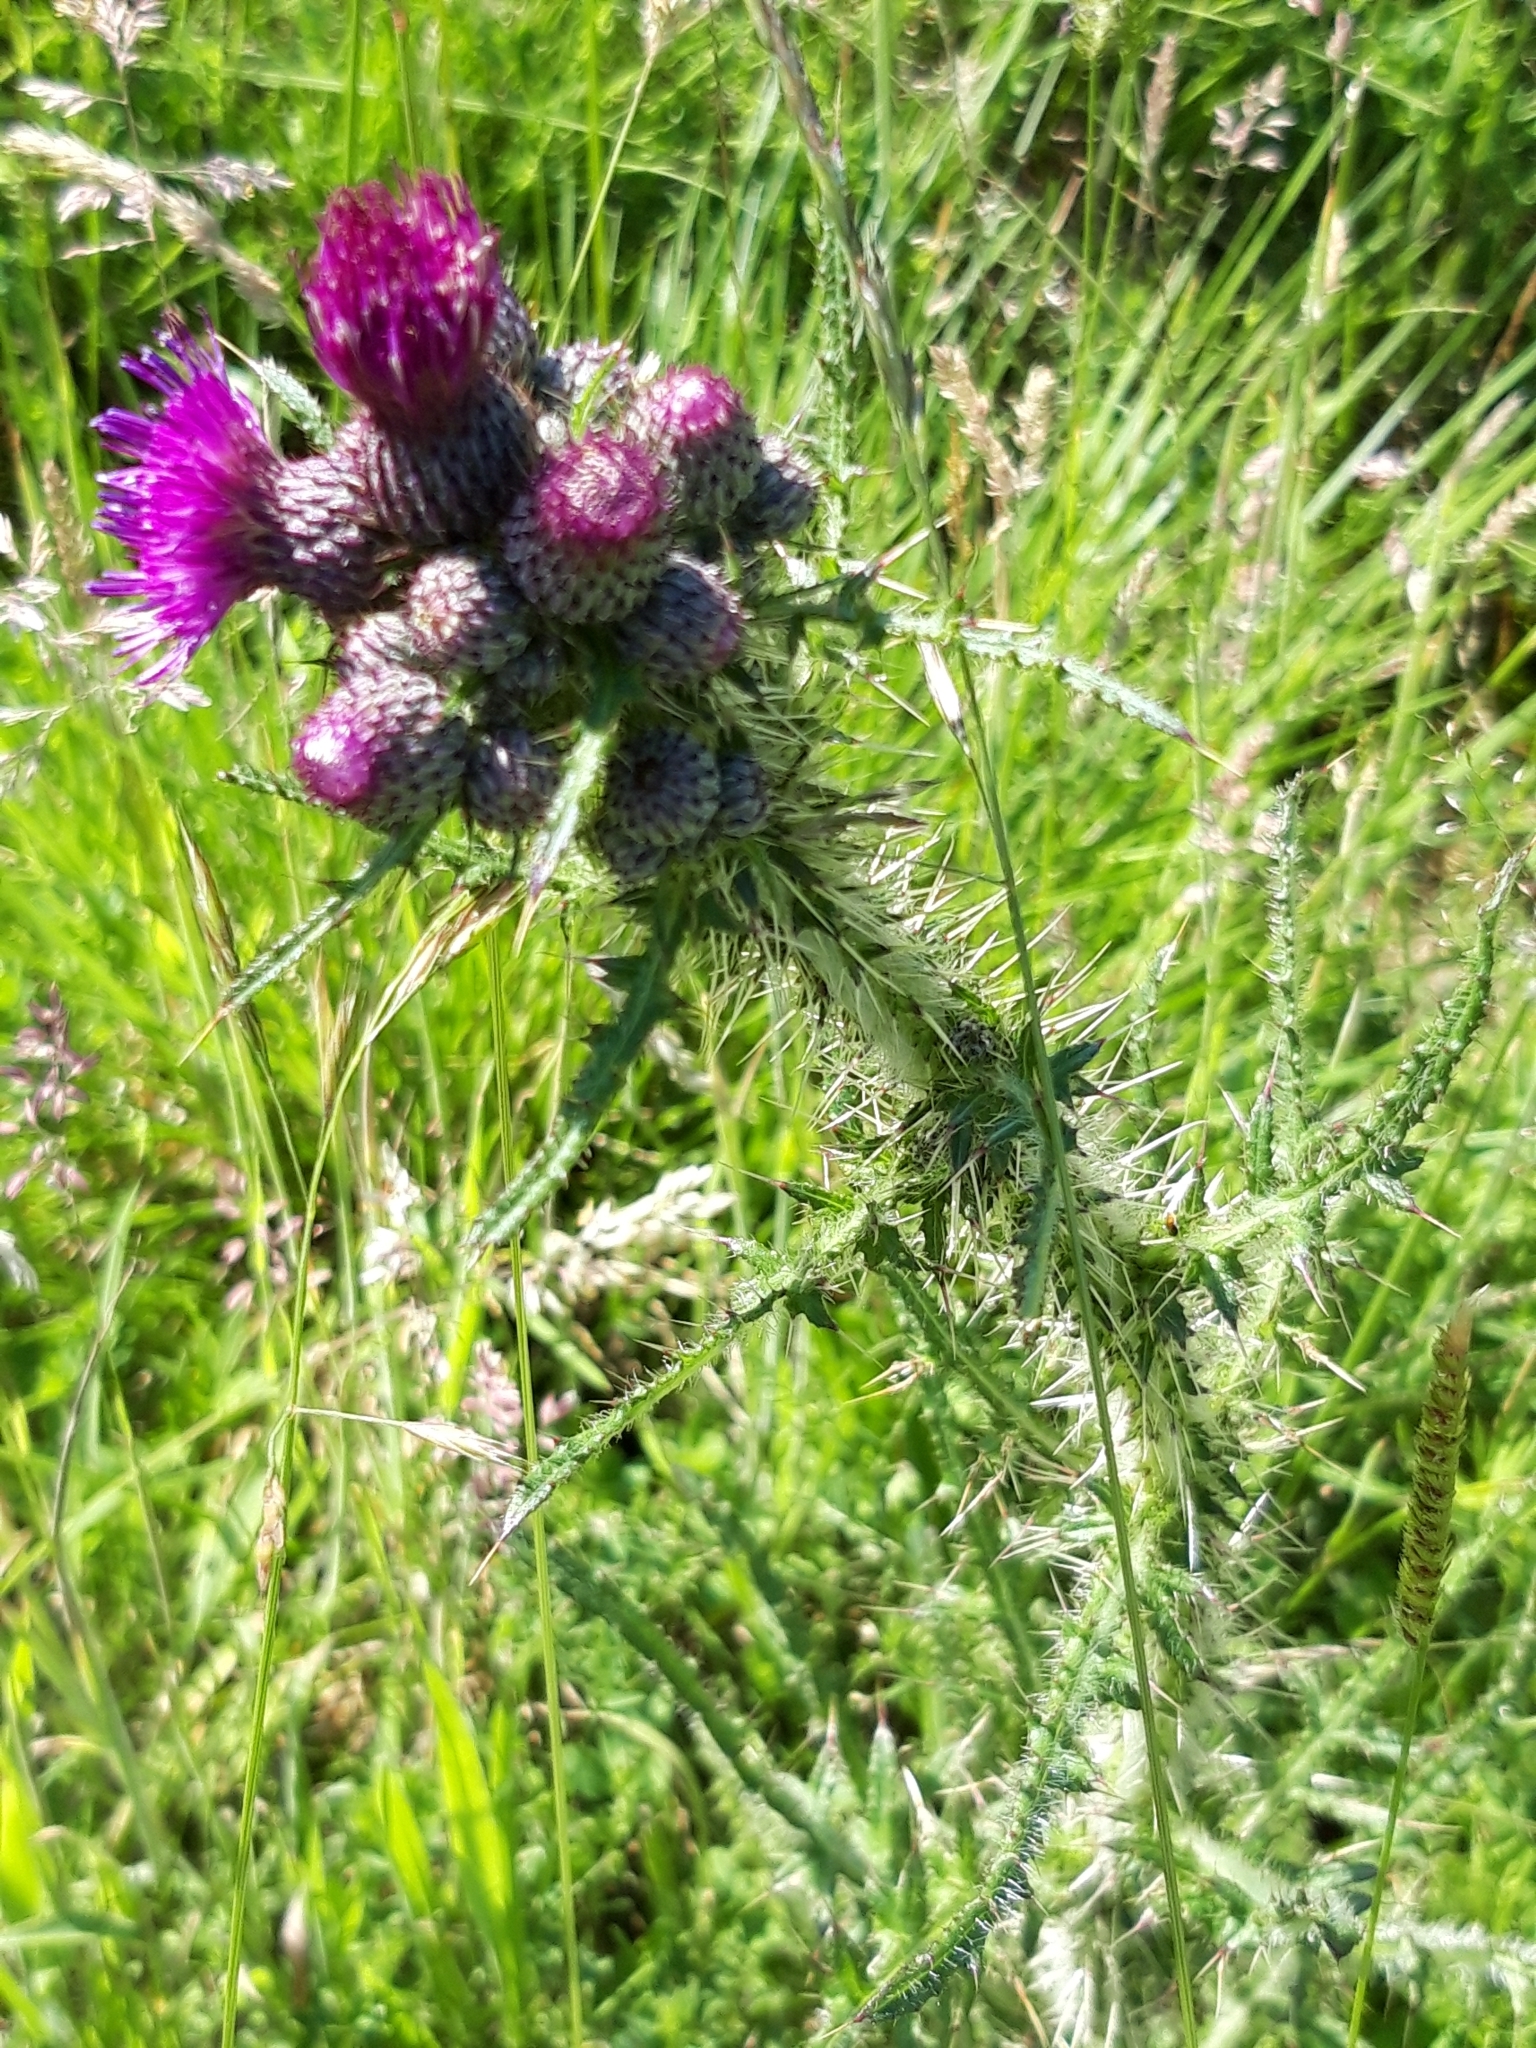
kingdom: Plantae
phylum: Tracheophyta
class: Magnoliopsida
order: Asterales
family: Asteraceae
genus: Cirsium
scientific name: Cirsium palustre
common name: Marsh thistle
